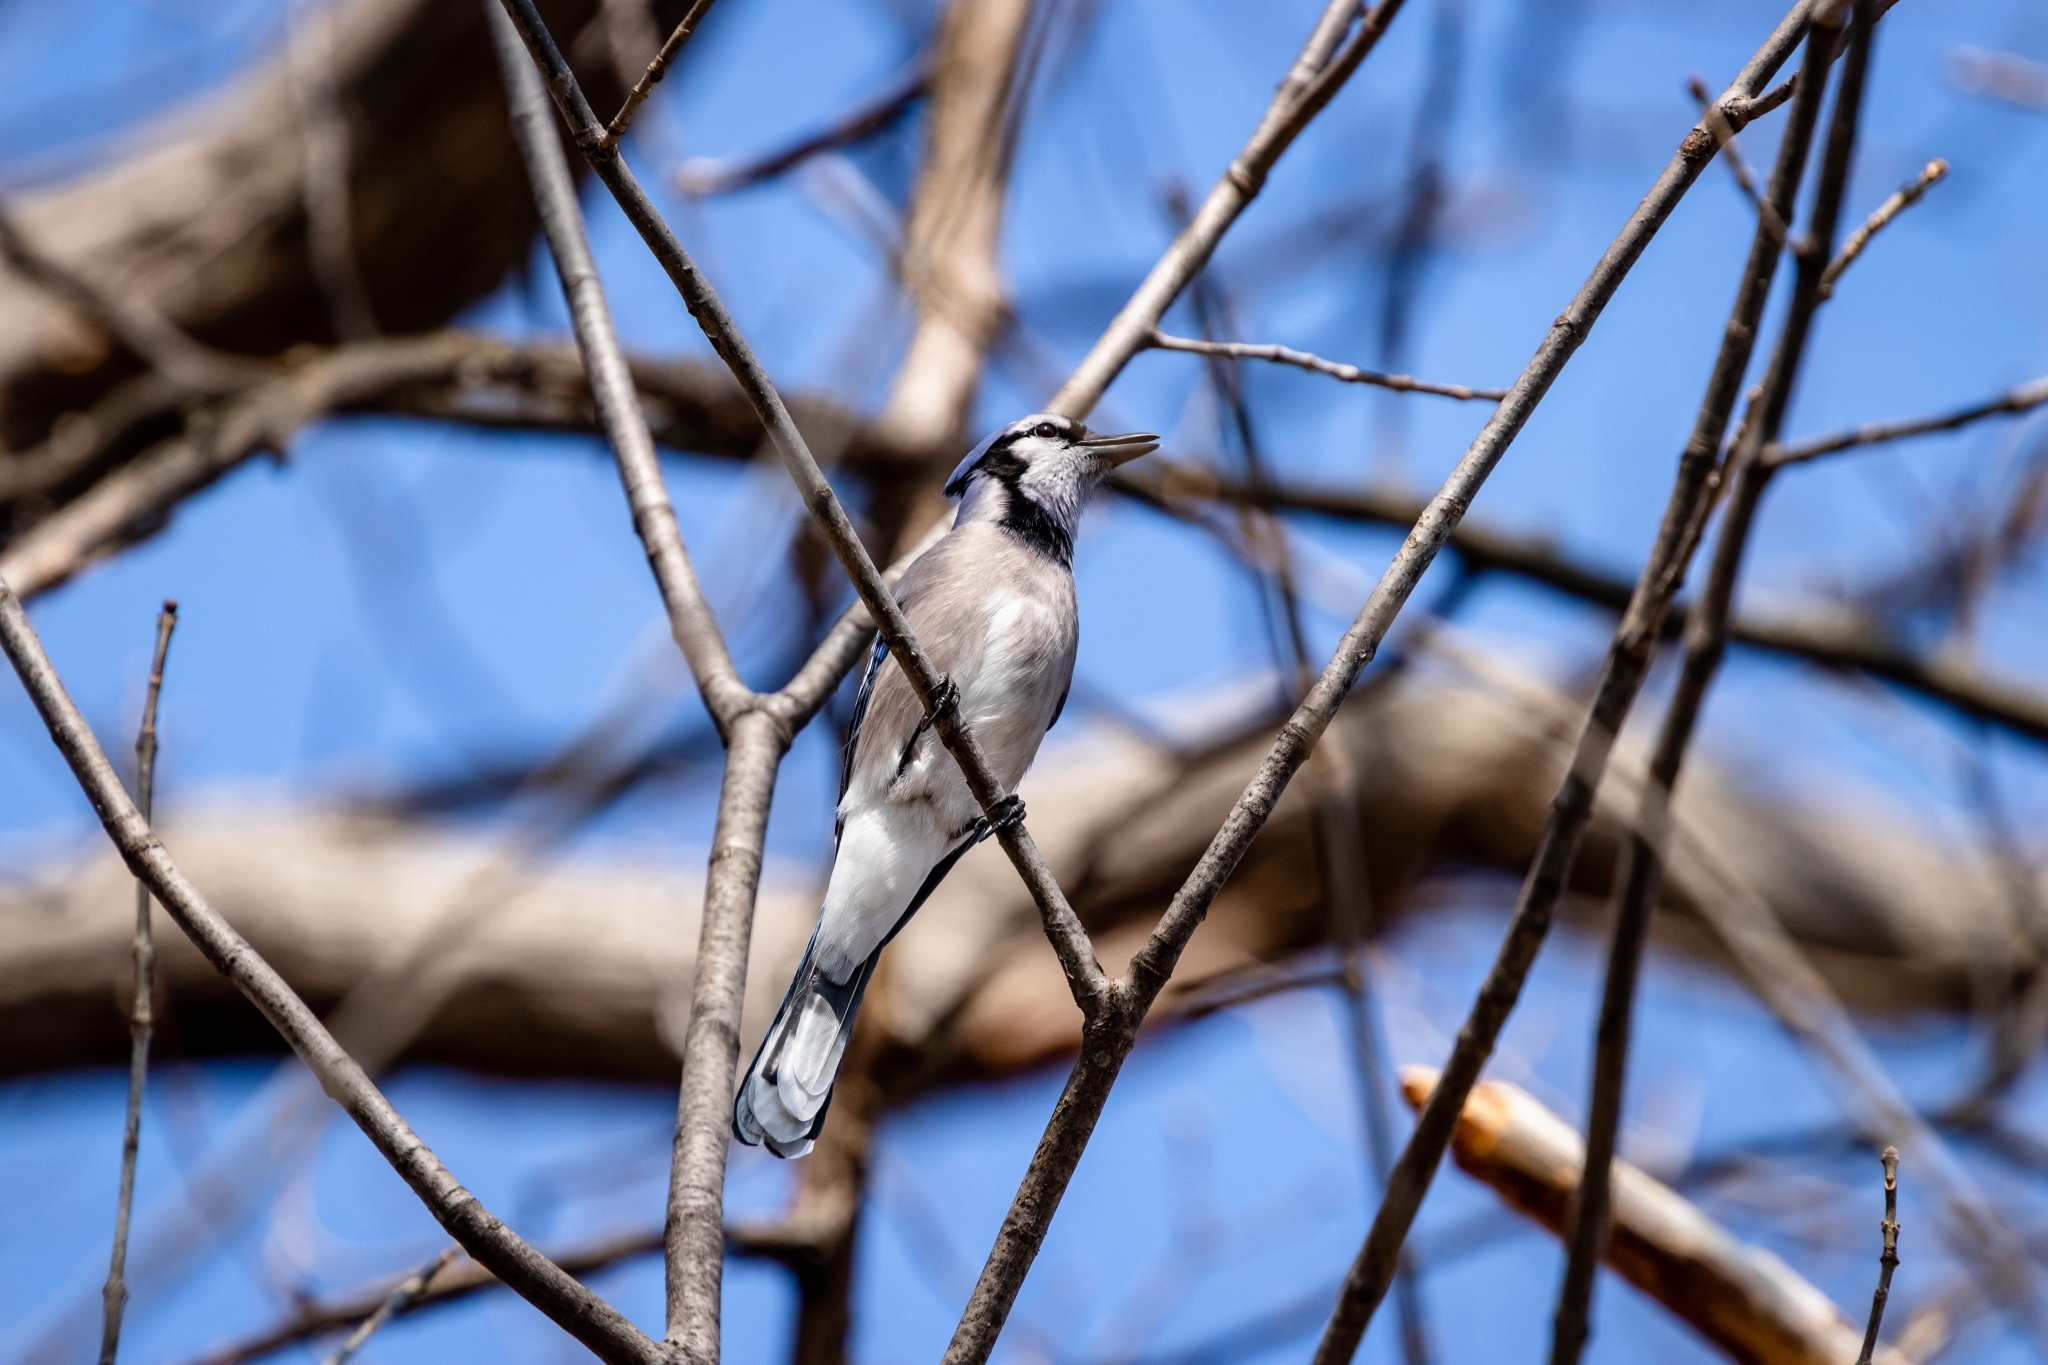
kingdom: Animalia
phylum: Chordata
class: Aves
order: Passeriformes
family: Corvidae
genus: Cyanocitta
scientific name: Cyanocitta cristata
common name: Blue jay
